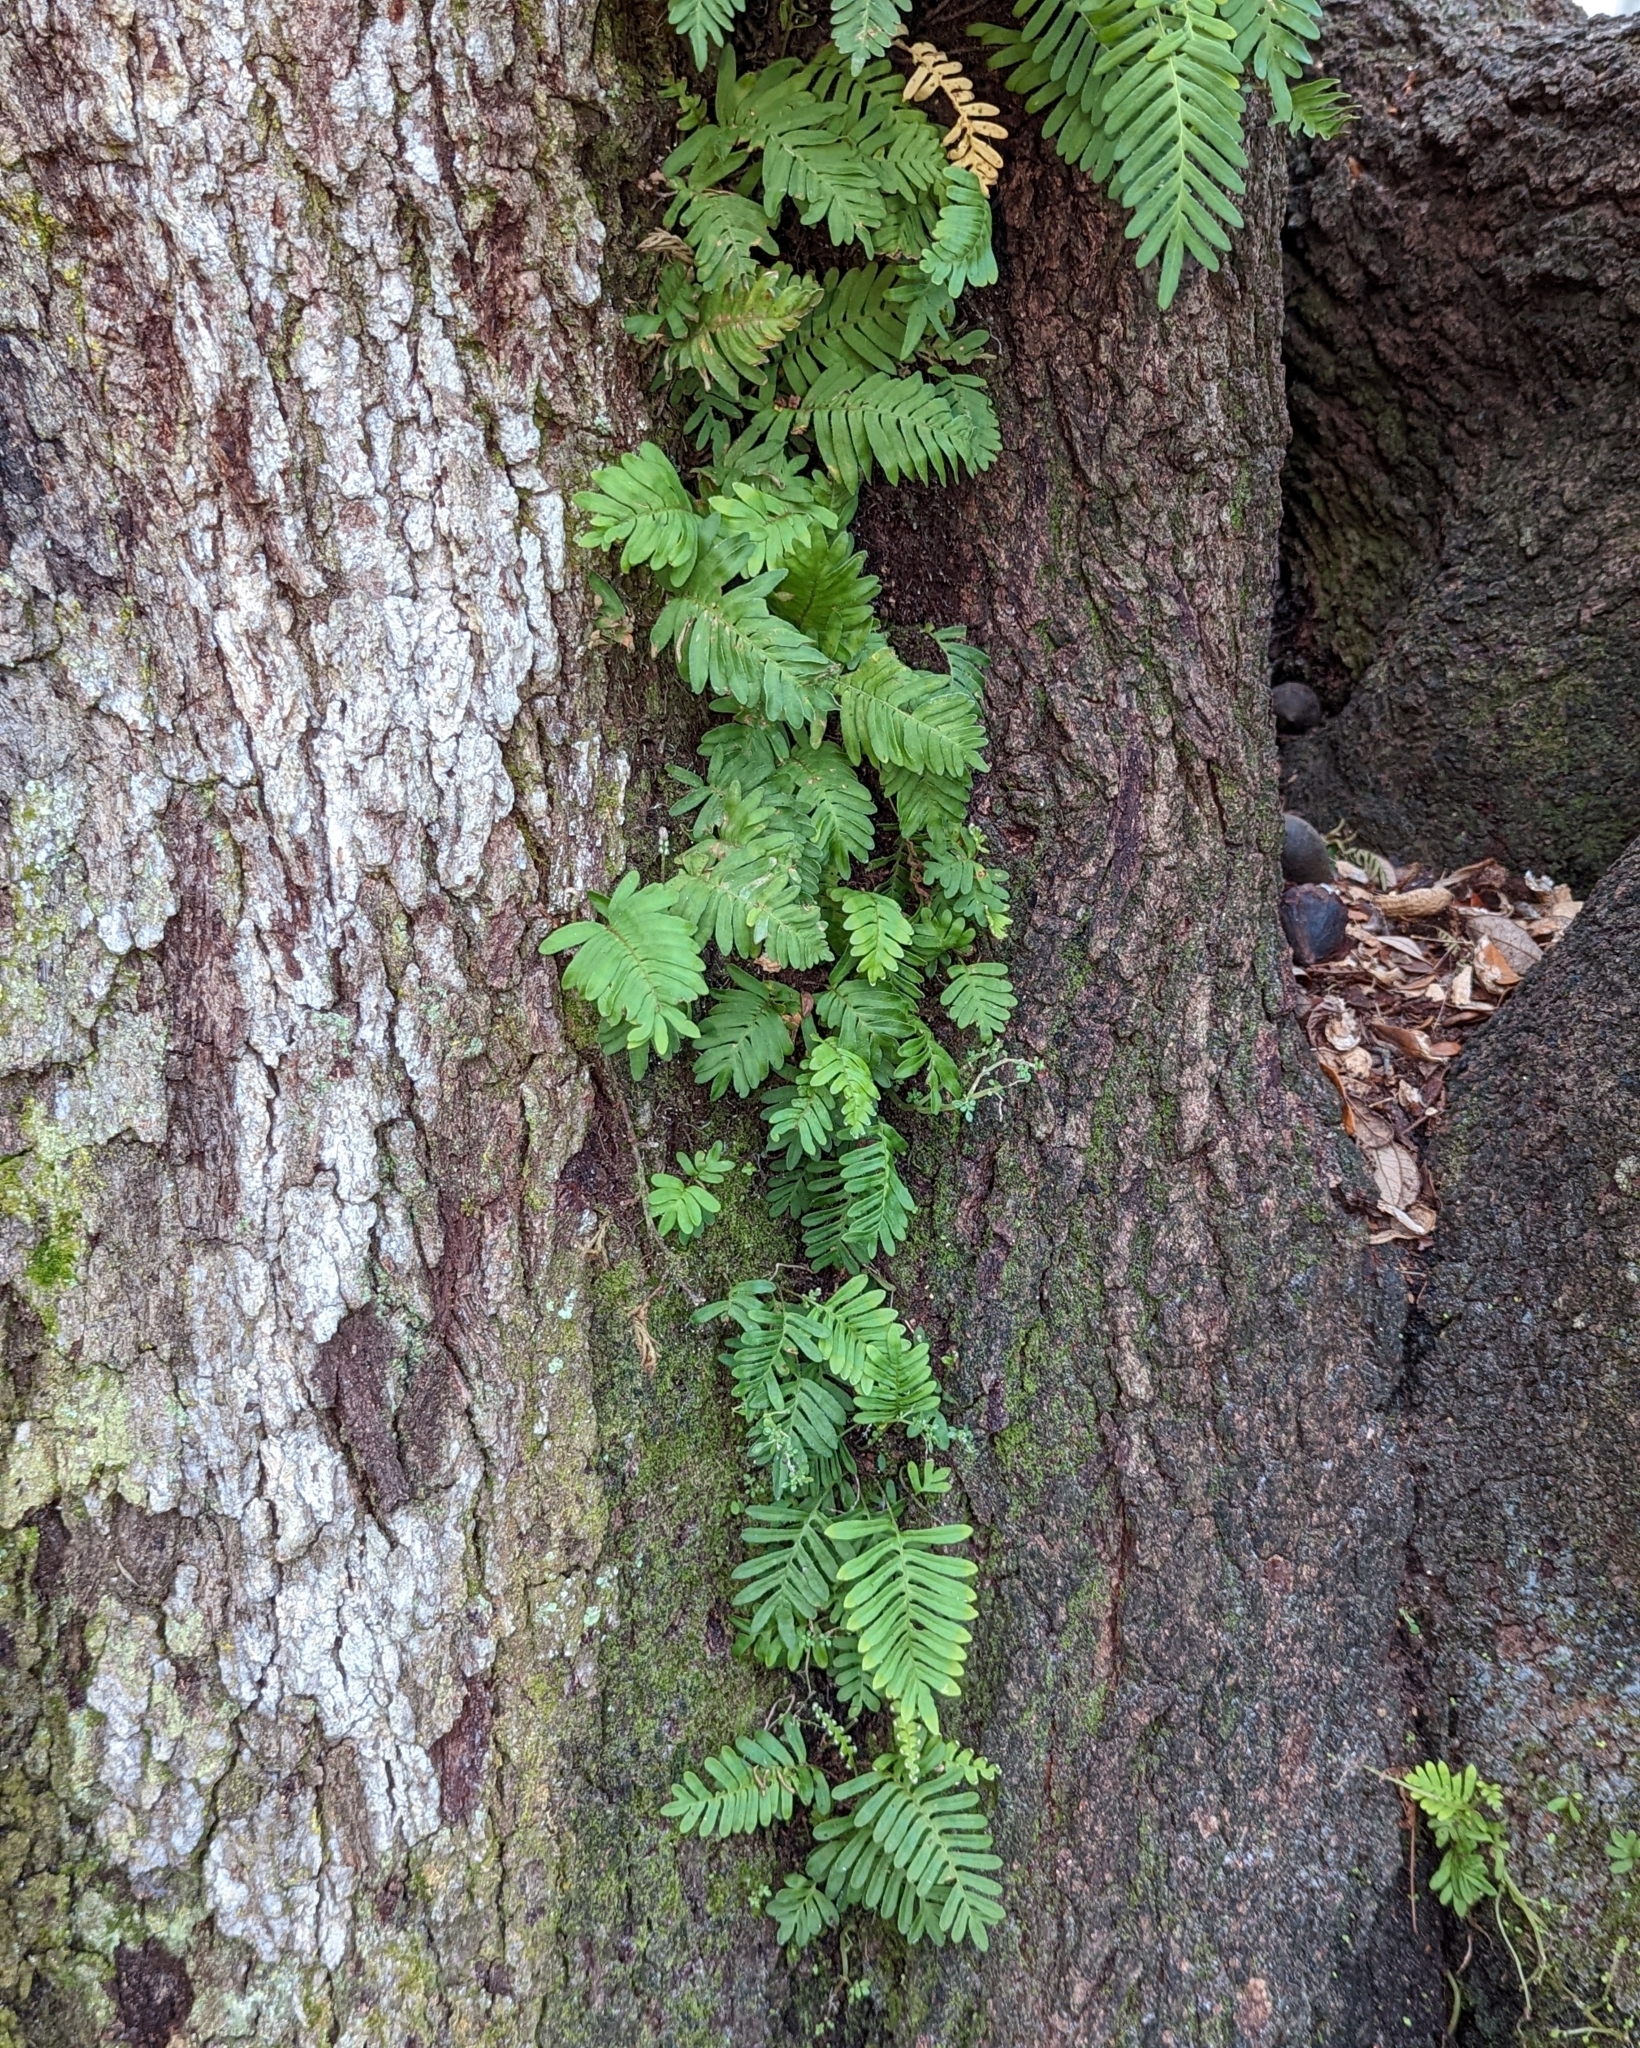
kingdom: Plantae
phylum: Tracheophyta
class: Polypodiopsida
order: Polypodiales
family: Polypodiaceae
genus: Pleopeltis
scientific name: Pleopeltis michauxiana
